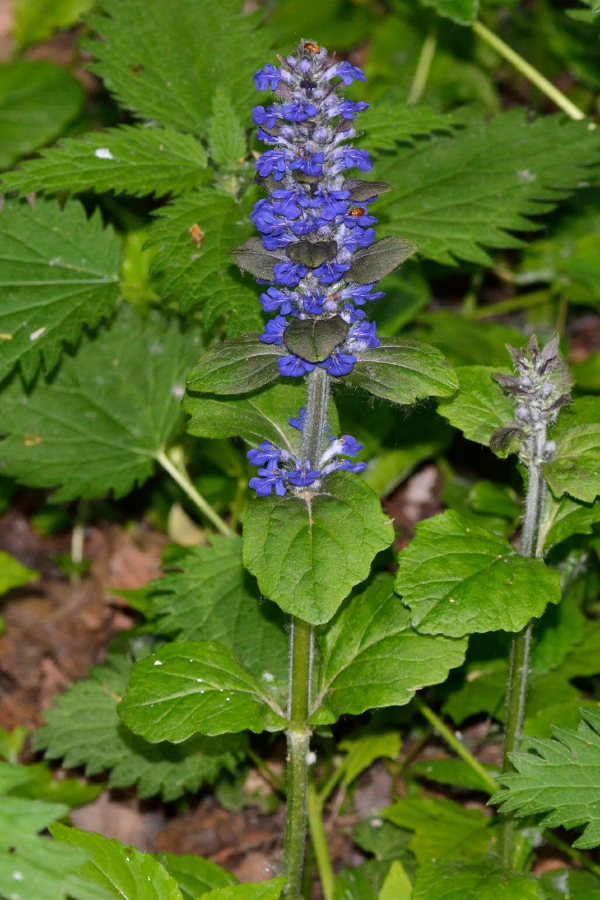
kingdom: Plantae
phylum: Tracheophyta
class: Magnoliopsida
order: Lamiales
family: Lamiaceae
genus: Ajuga
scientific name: Ajuga reptans
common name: Bugle
